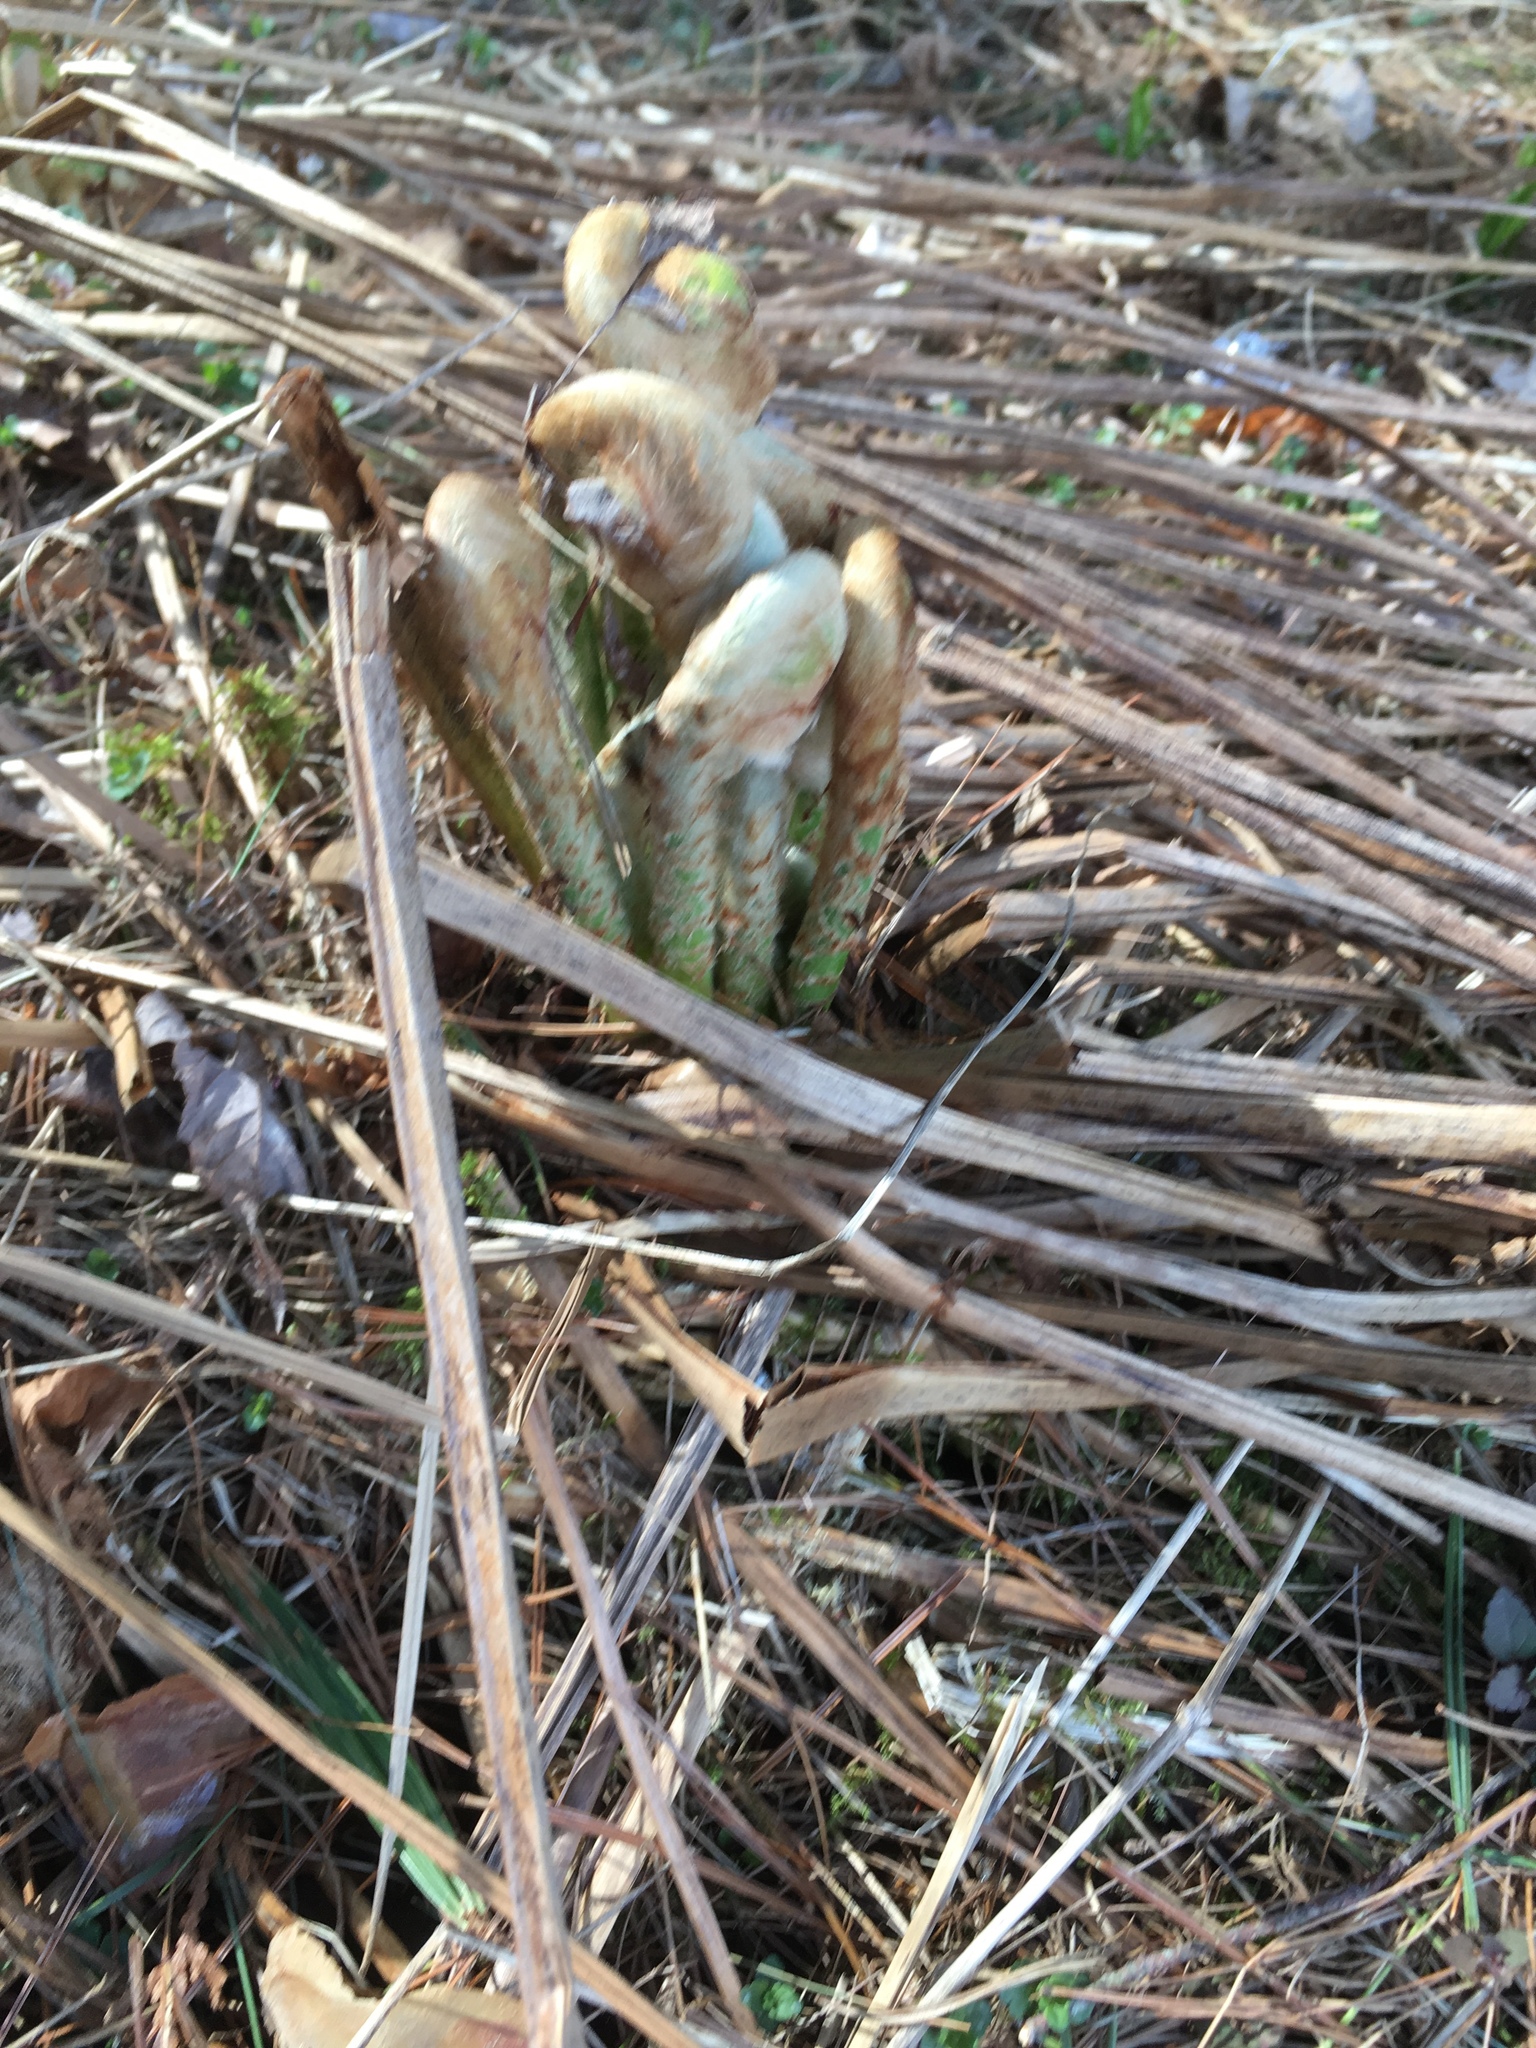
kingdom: Plantae
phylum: Tracheophyta
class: Polypodiopsida
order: Osmundales
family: Osmundaceae
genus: Osmundastrum
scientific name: Osmundastrum cinnamomeum
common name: Cinnamon fern
